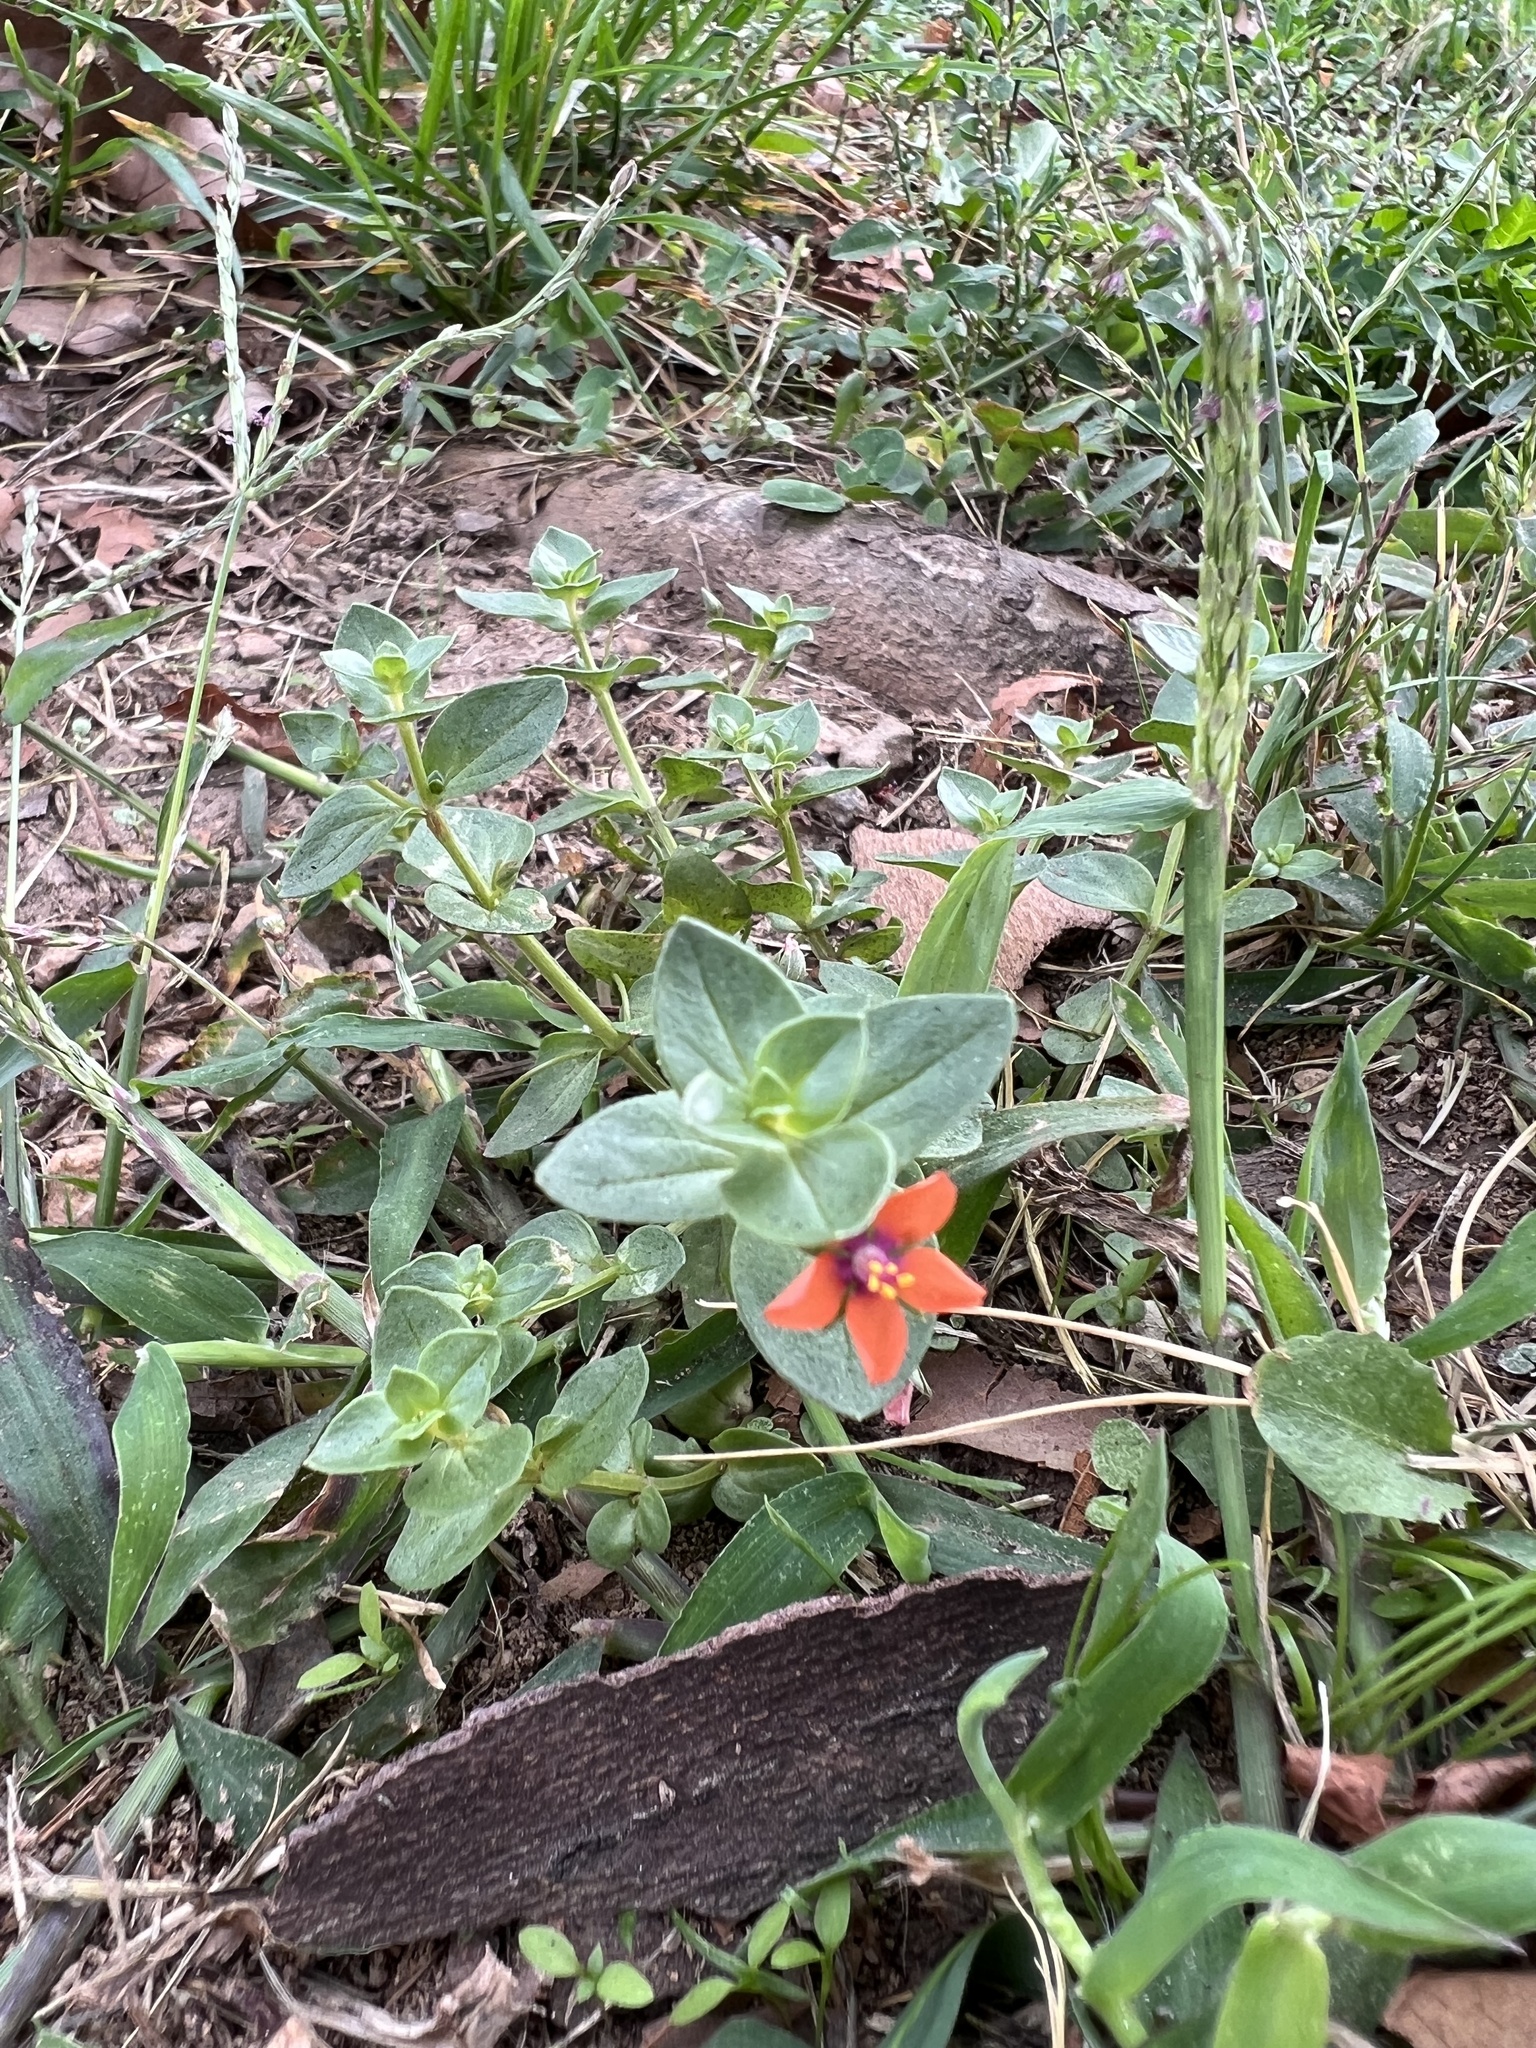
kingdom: Plantae
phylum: Tracheophyta
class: Magnoliopsida
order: Ericales
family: Primulaceae
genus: Lysimachia
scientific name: Lysimachia arvensis
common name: Scarlet pimpernel
